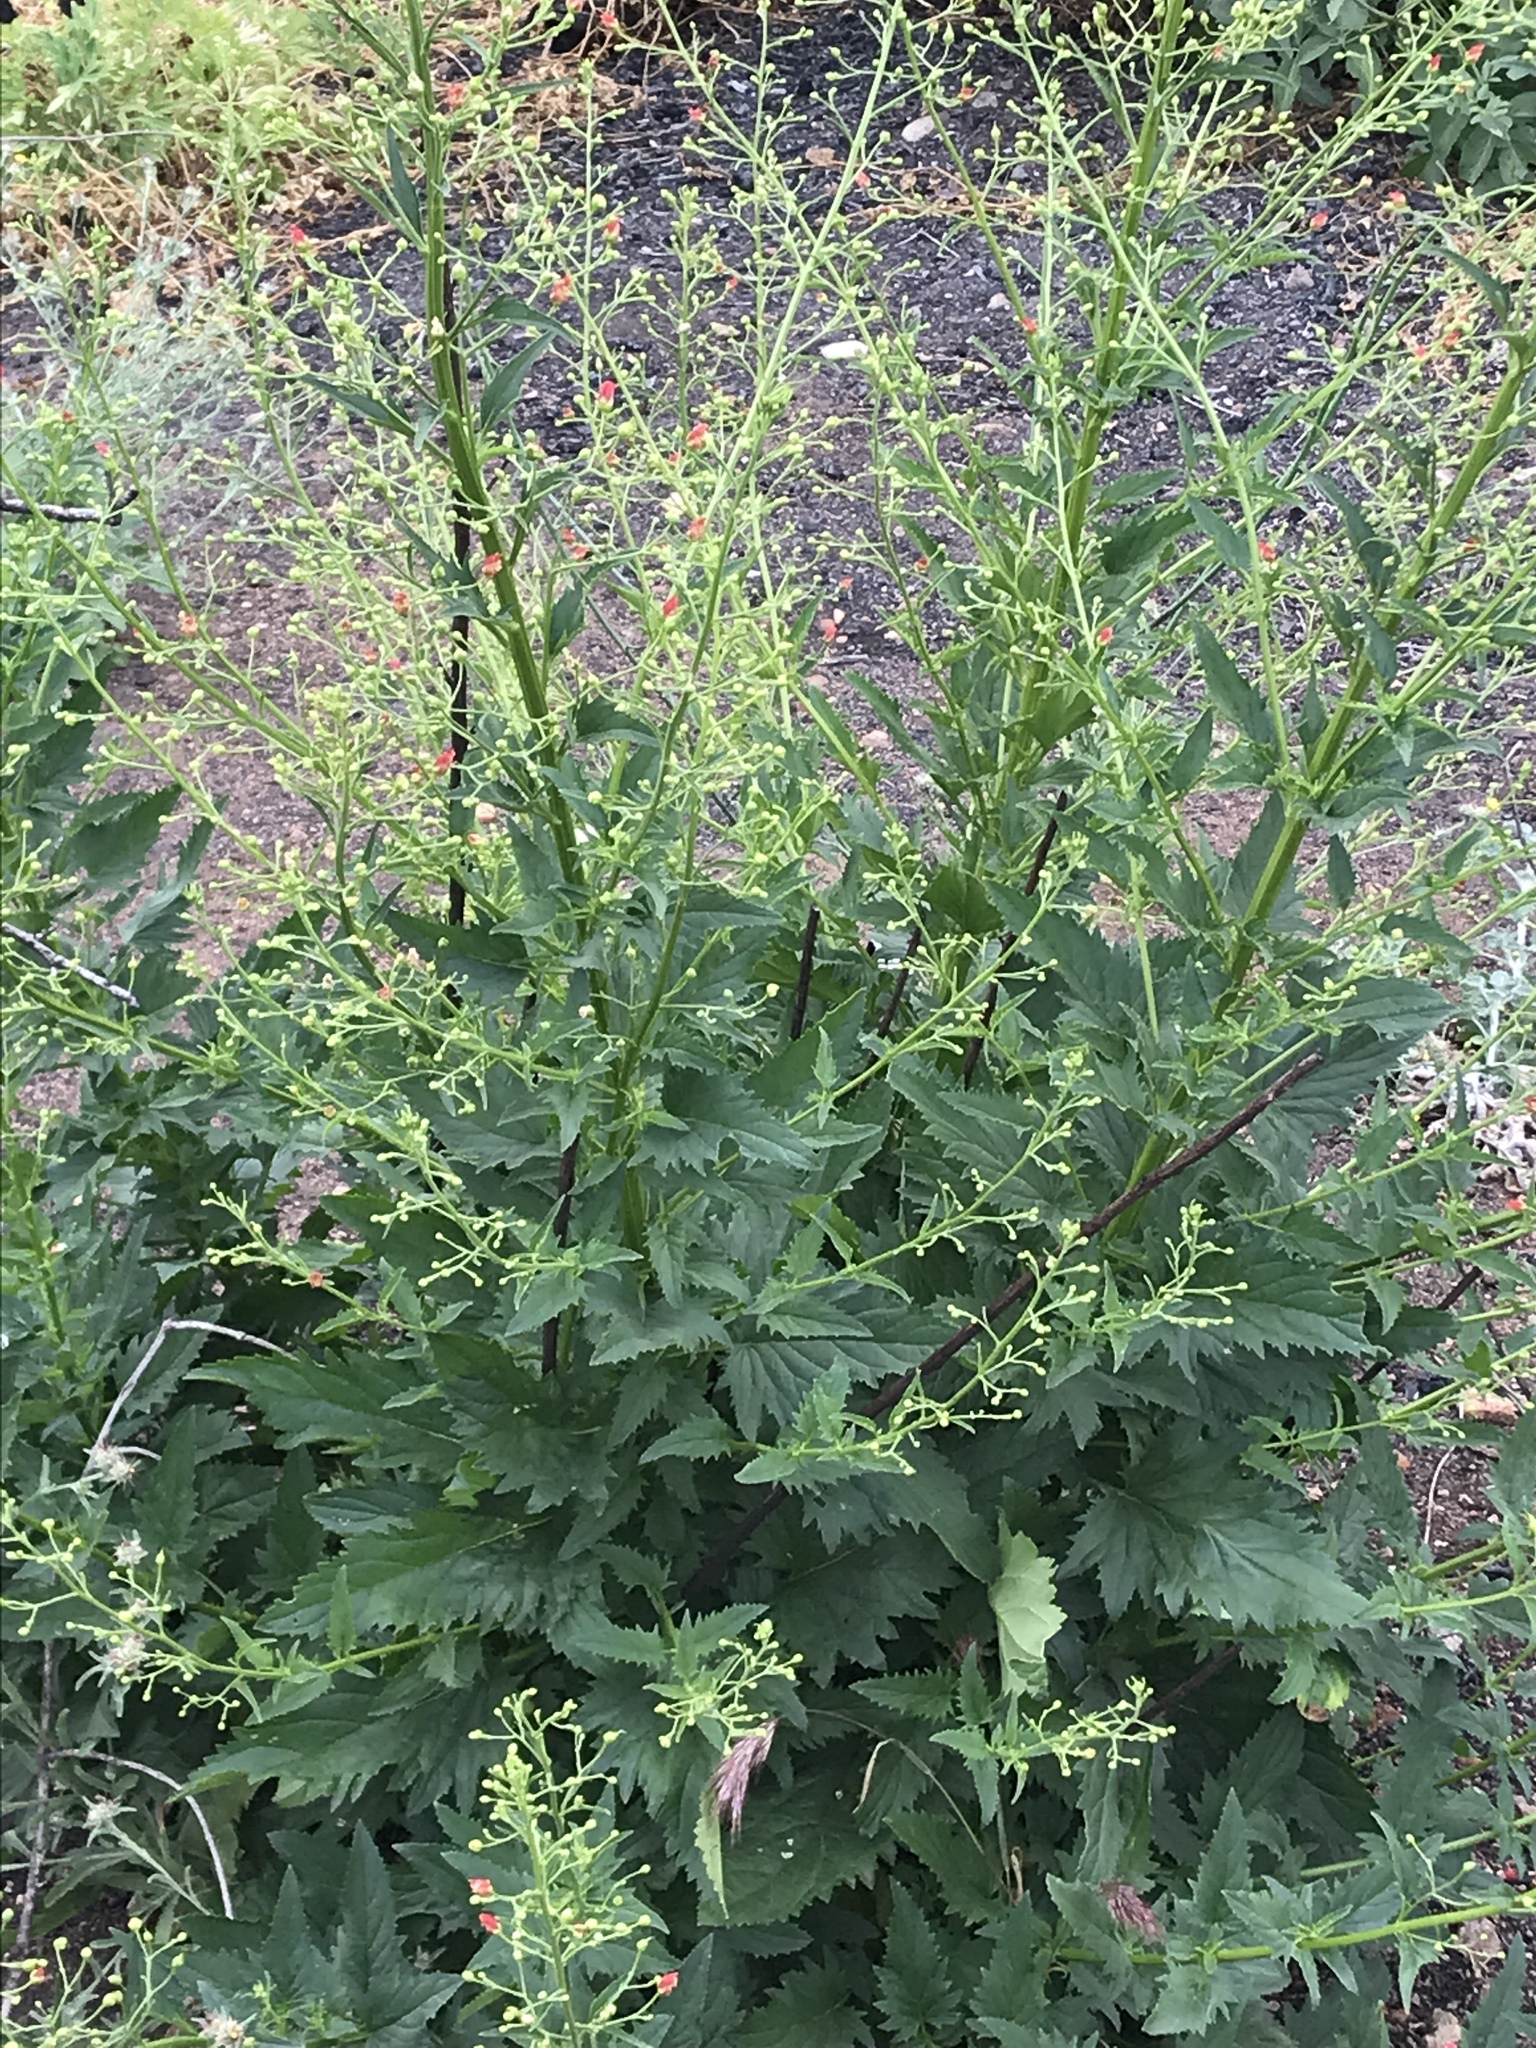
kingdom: Plantae
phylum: Tracheophyta
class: Magnoliopsida
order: Lamiales
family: Scrophulariaceae
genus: Scrophularia
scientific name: Scrophularia californica
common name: California figwort
